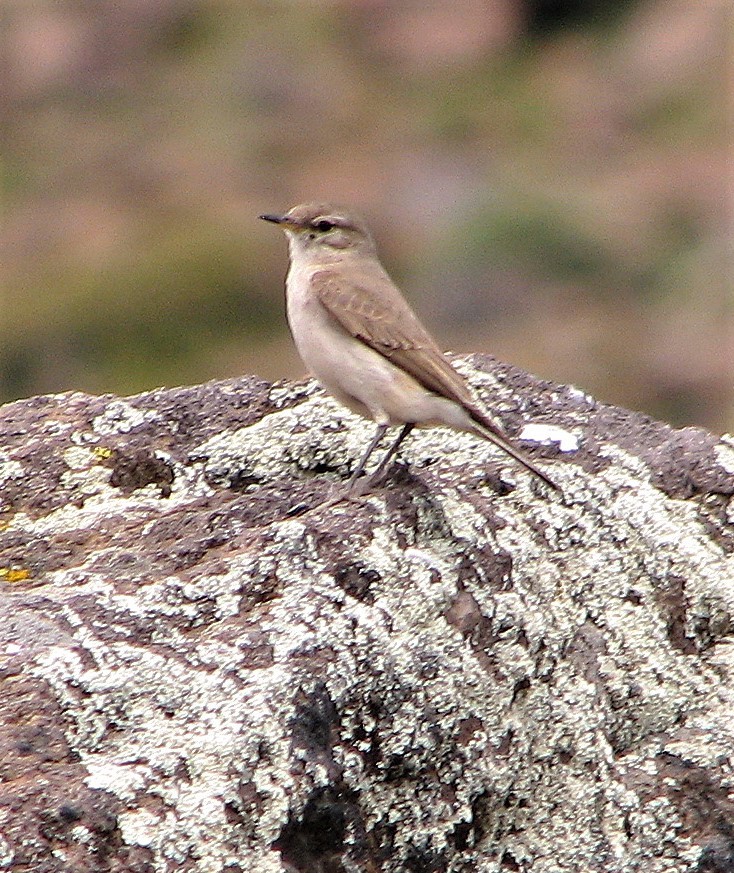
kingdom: Animalia
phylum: Chordata
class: Aves
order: Passeriformes
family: Furnariidae
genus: Geositta
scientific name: Geositta rufipennis
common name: Rufous-banded miner
